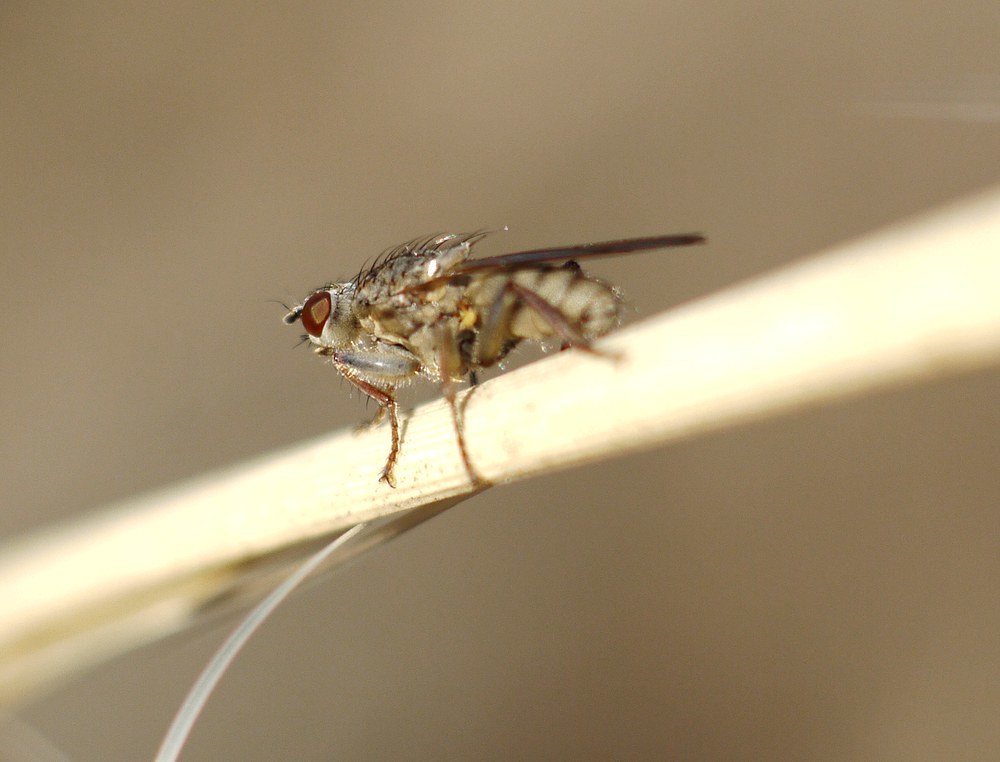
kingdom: Animalia
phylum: Arthropoda
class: Insecta
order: Diptera
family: Scathophagidae
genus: Scathophaga
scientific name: Scathophaga stercoraria
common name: Yellow dung fly
